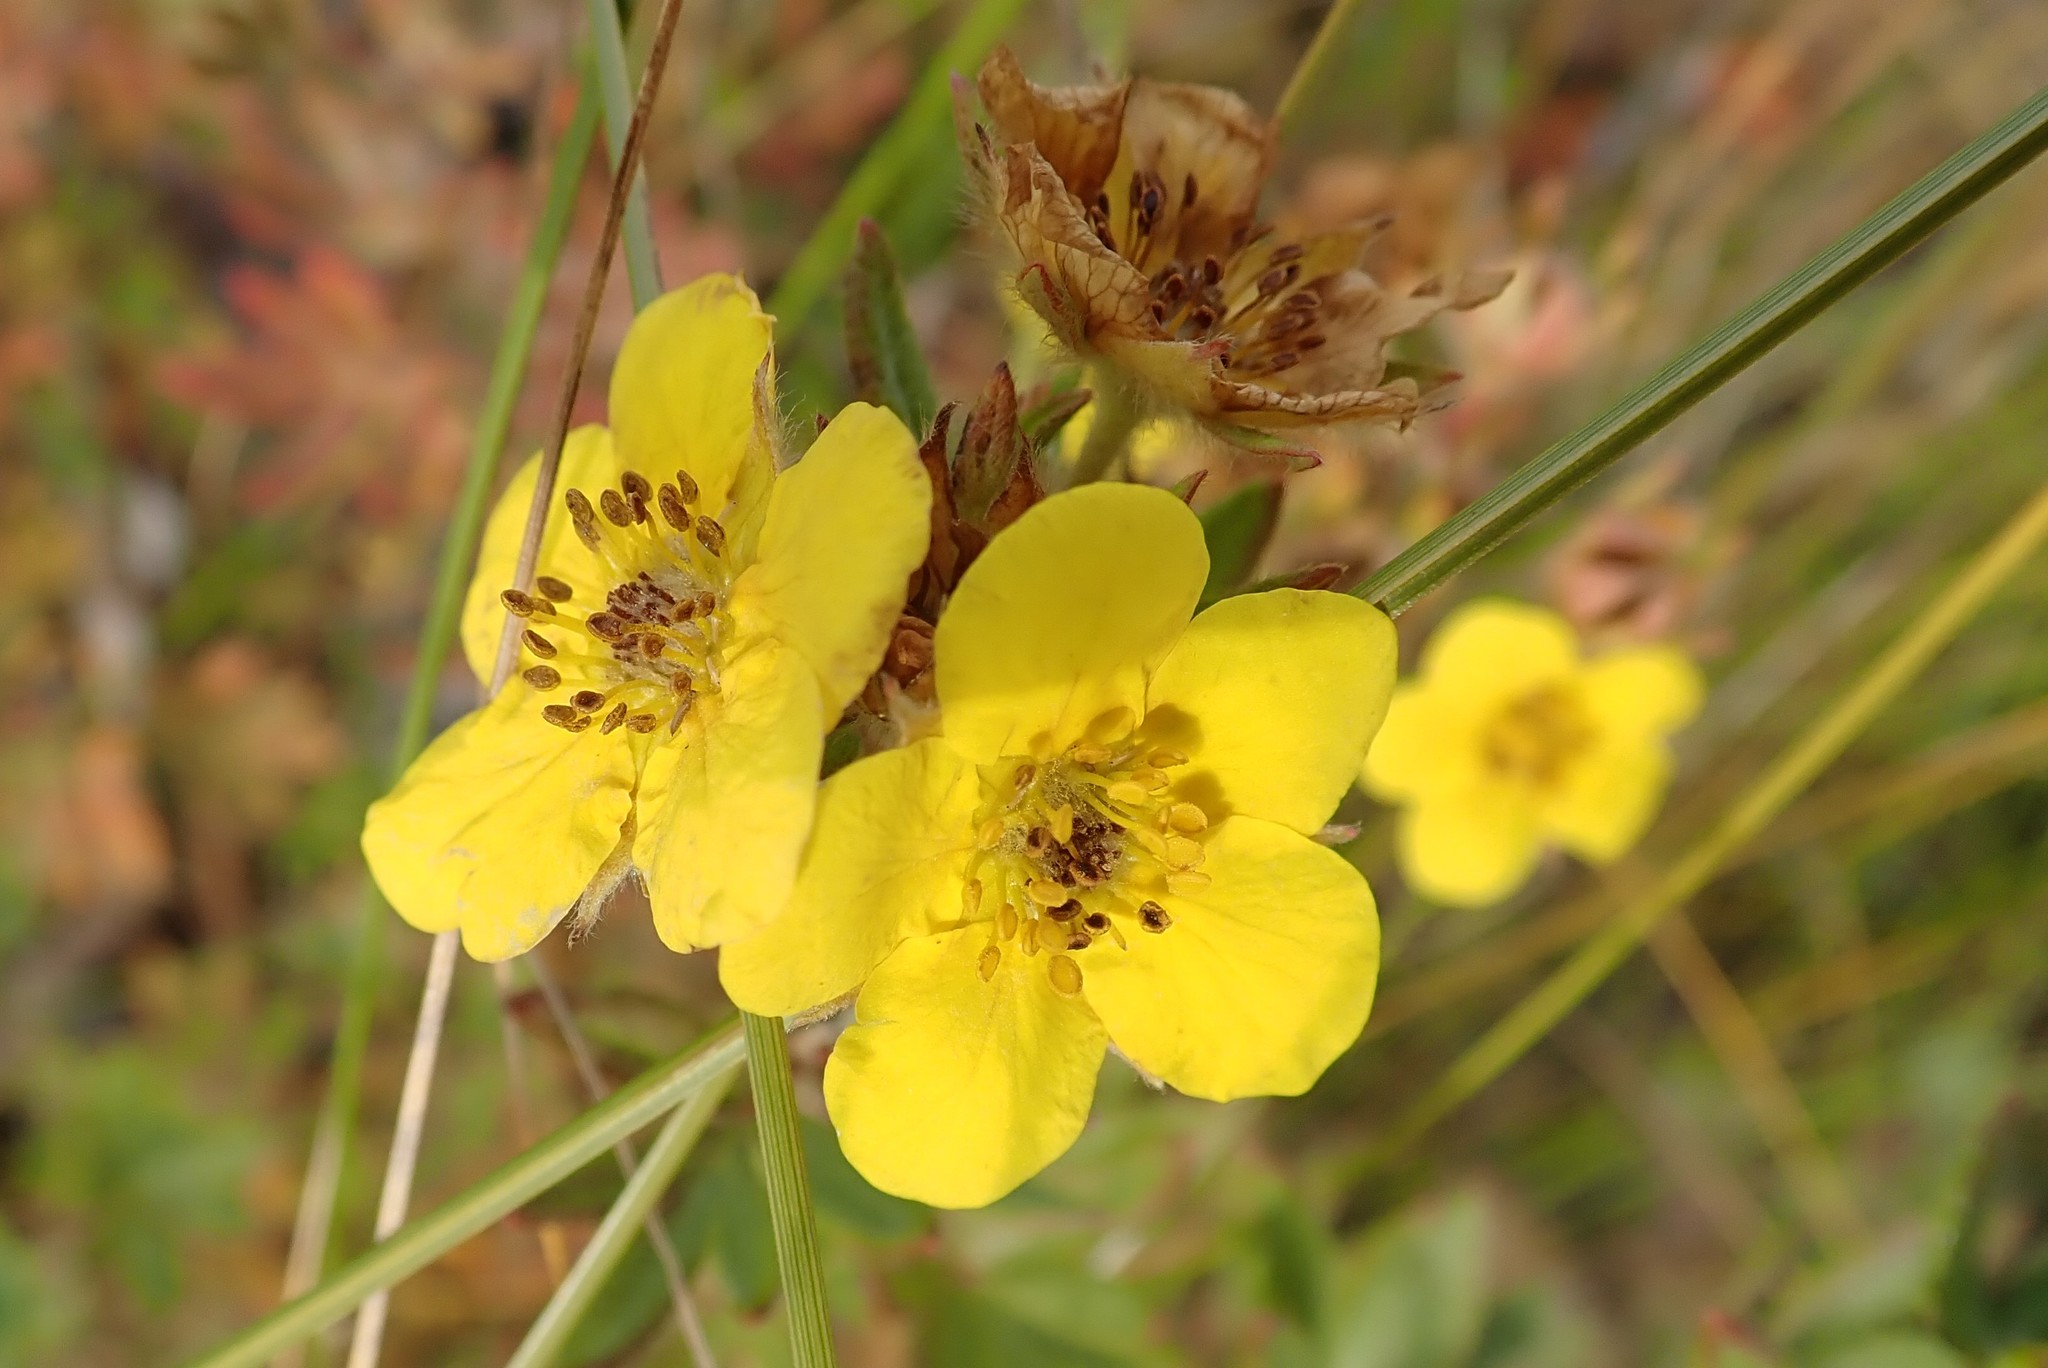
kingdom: Plantae
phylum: Tracheophyta
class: Magnoliopsida
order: Rosales
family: Rosaceae
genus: Dasiphora
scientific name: Dasiphora fruticosa
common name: Shrubby cinquefoil
